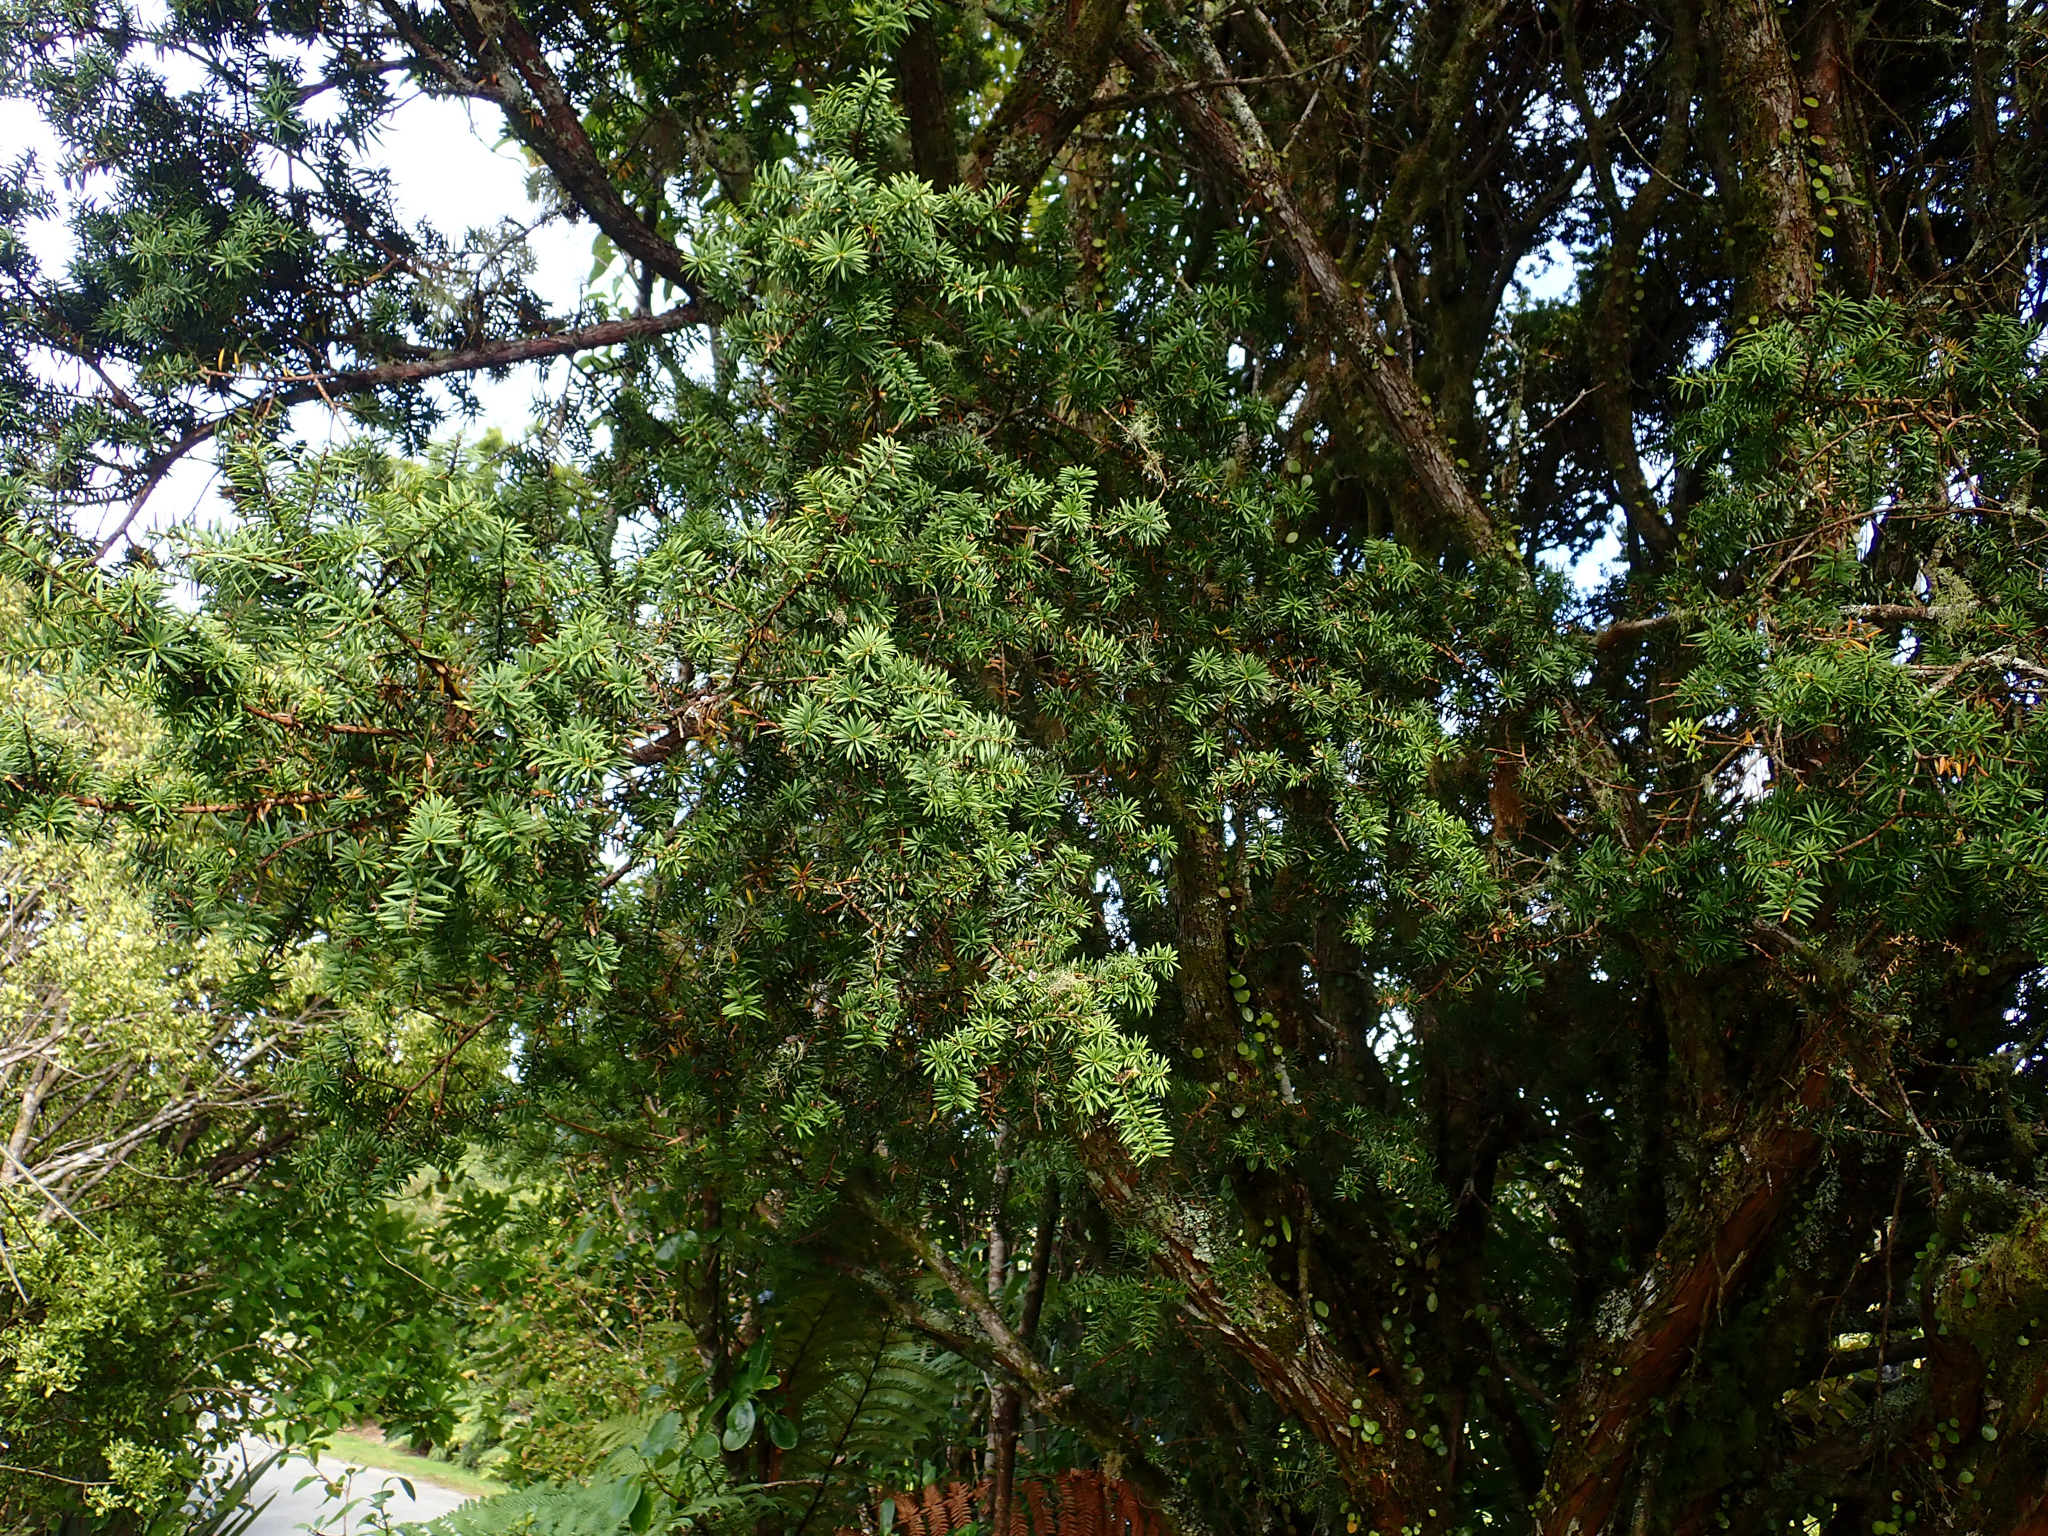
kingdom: Plantae
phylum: Tracheophyta
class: Pinopsida
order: Pinales
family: Podocarpaceae
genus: Podocarpus
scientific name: Podocarpus totara
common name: Totara
